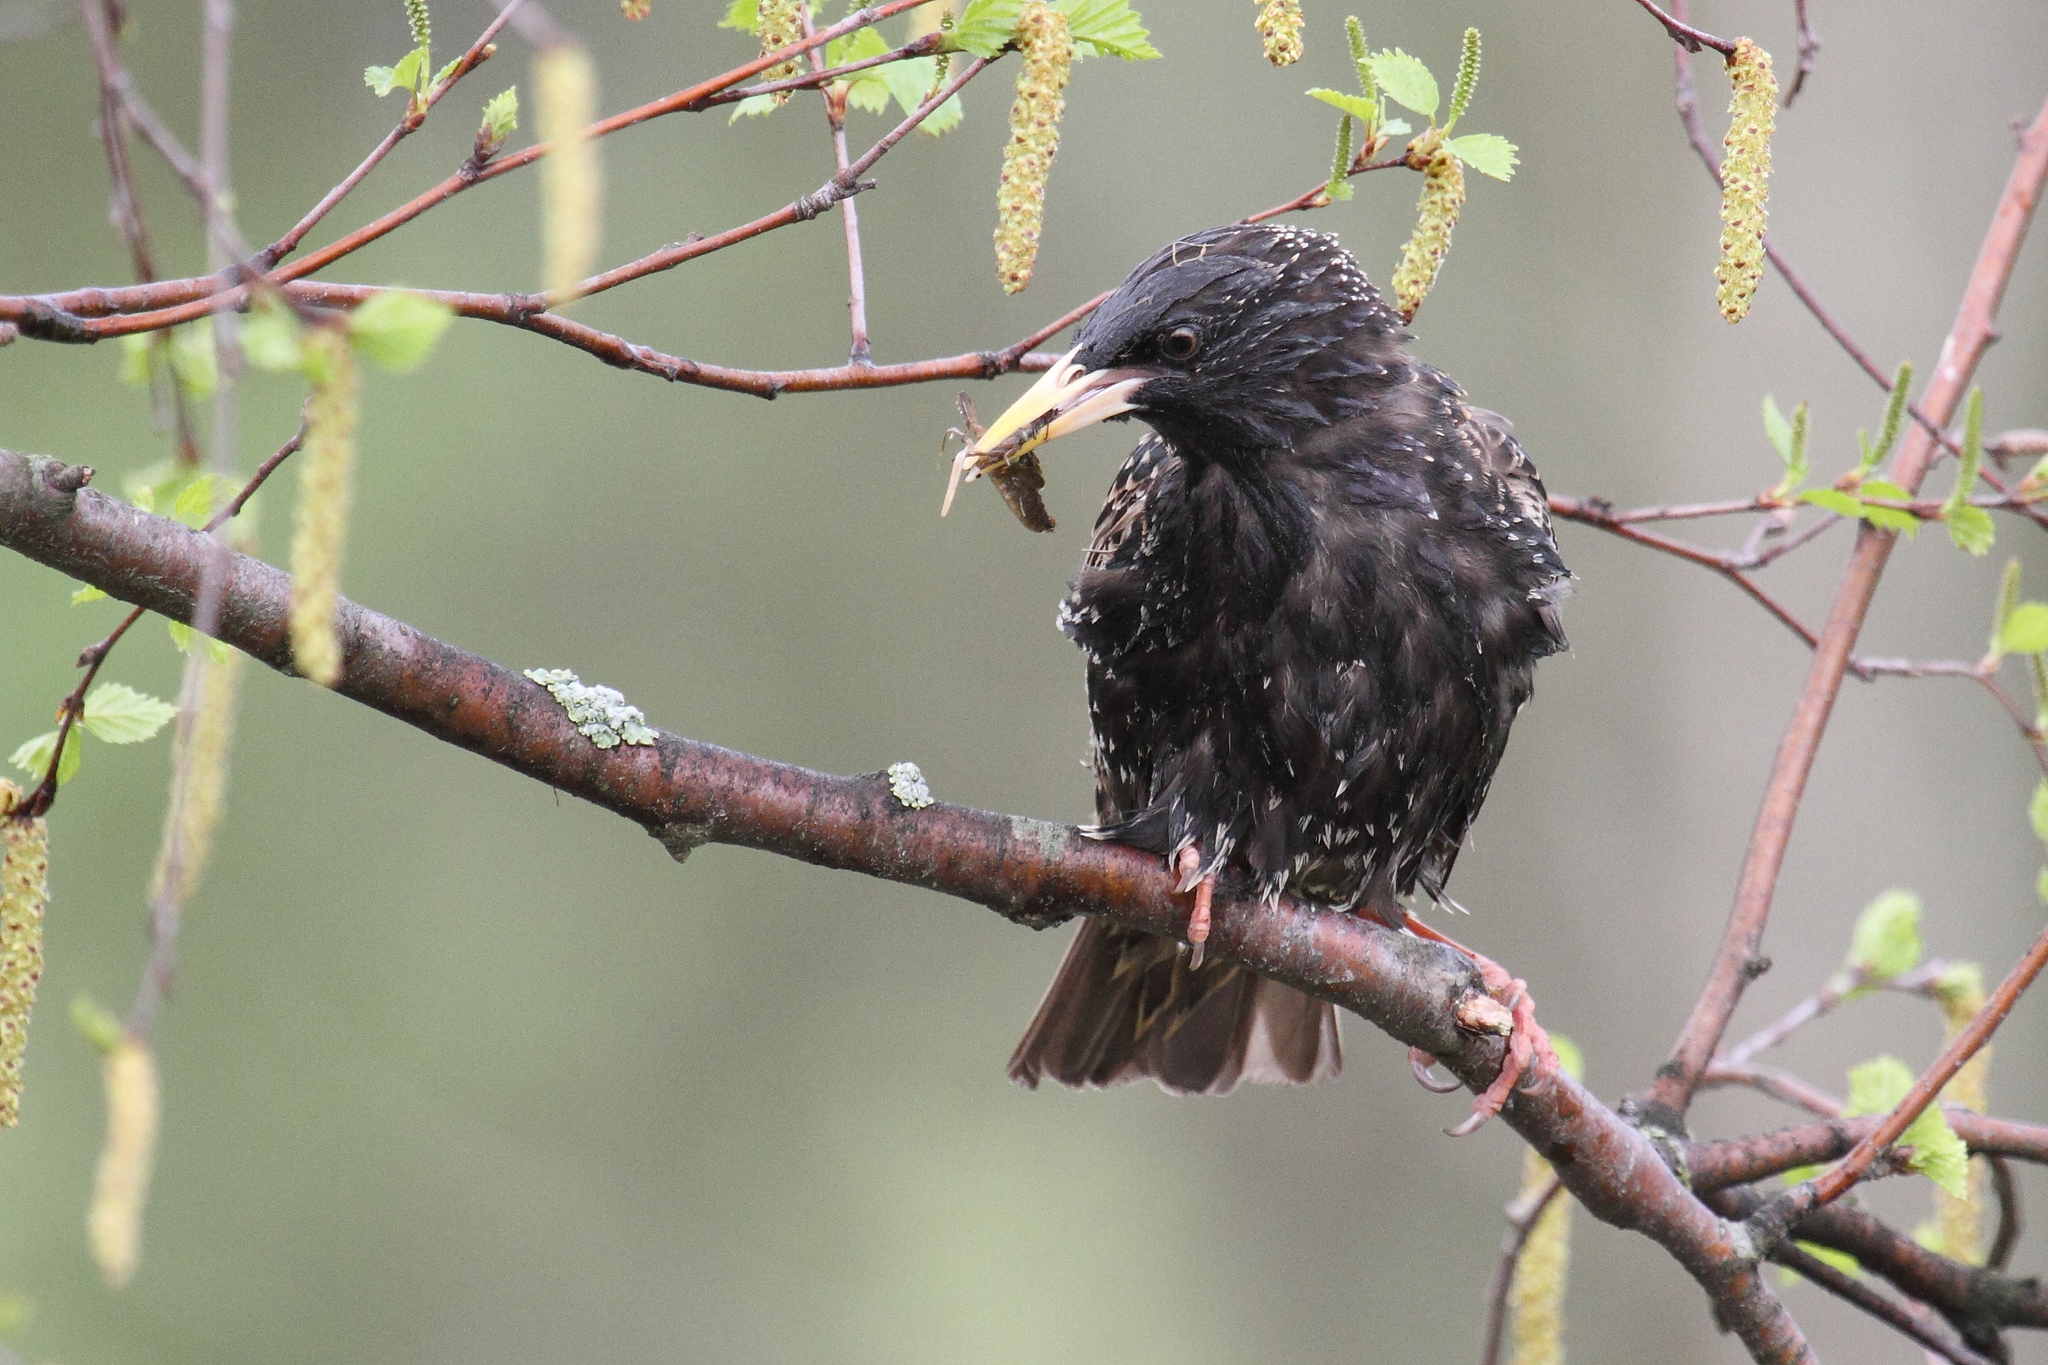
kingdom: Animalia
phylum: Chordata
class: Aves
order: Passeriformes
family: Sturnidae
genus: Sturnus
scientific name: Sturnus vulgaris
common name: Common starling
